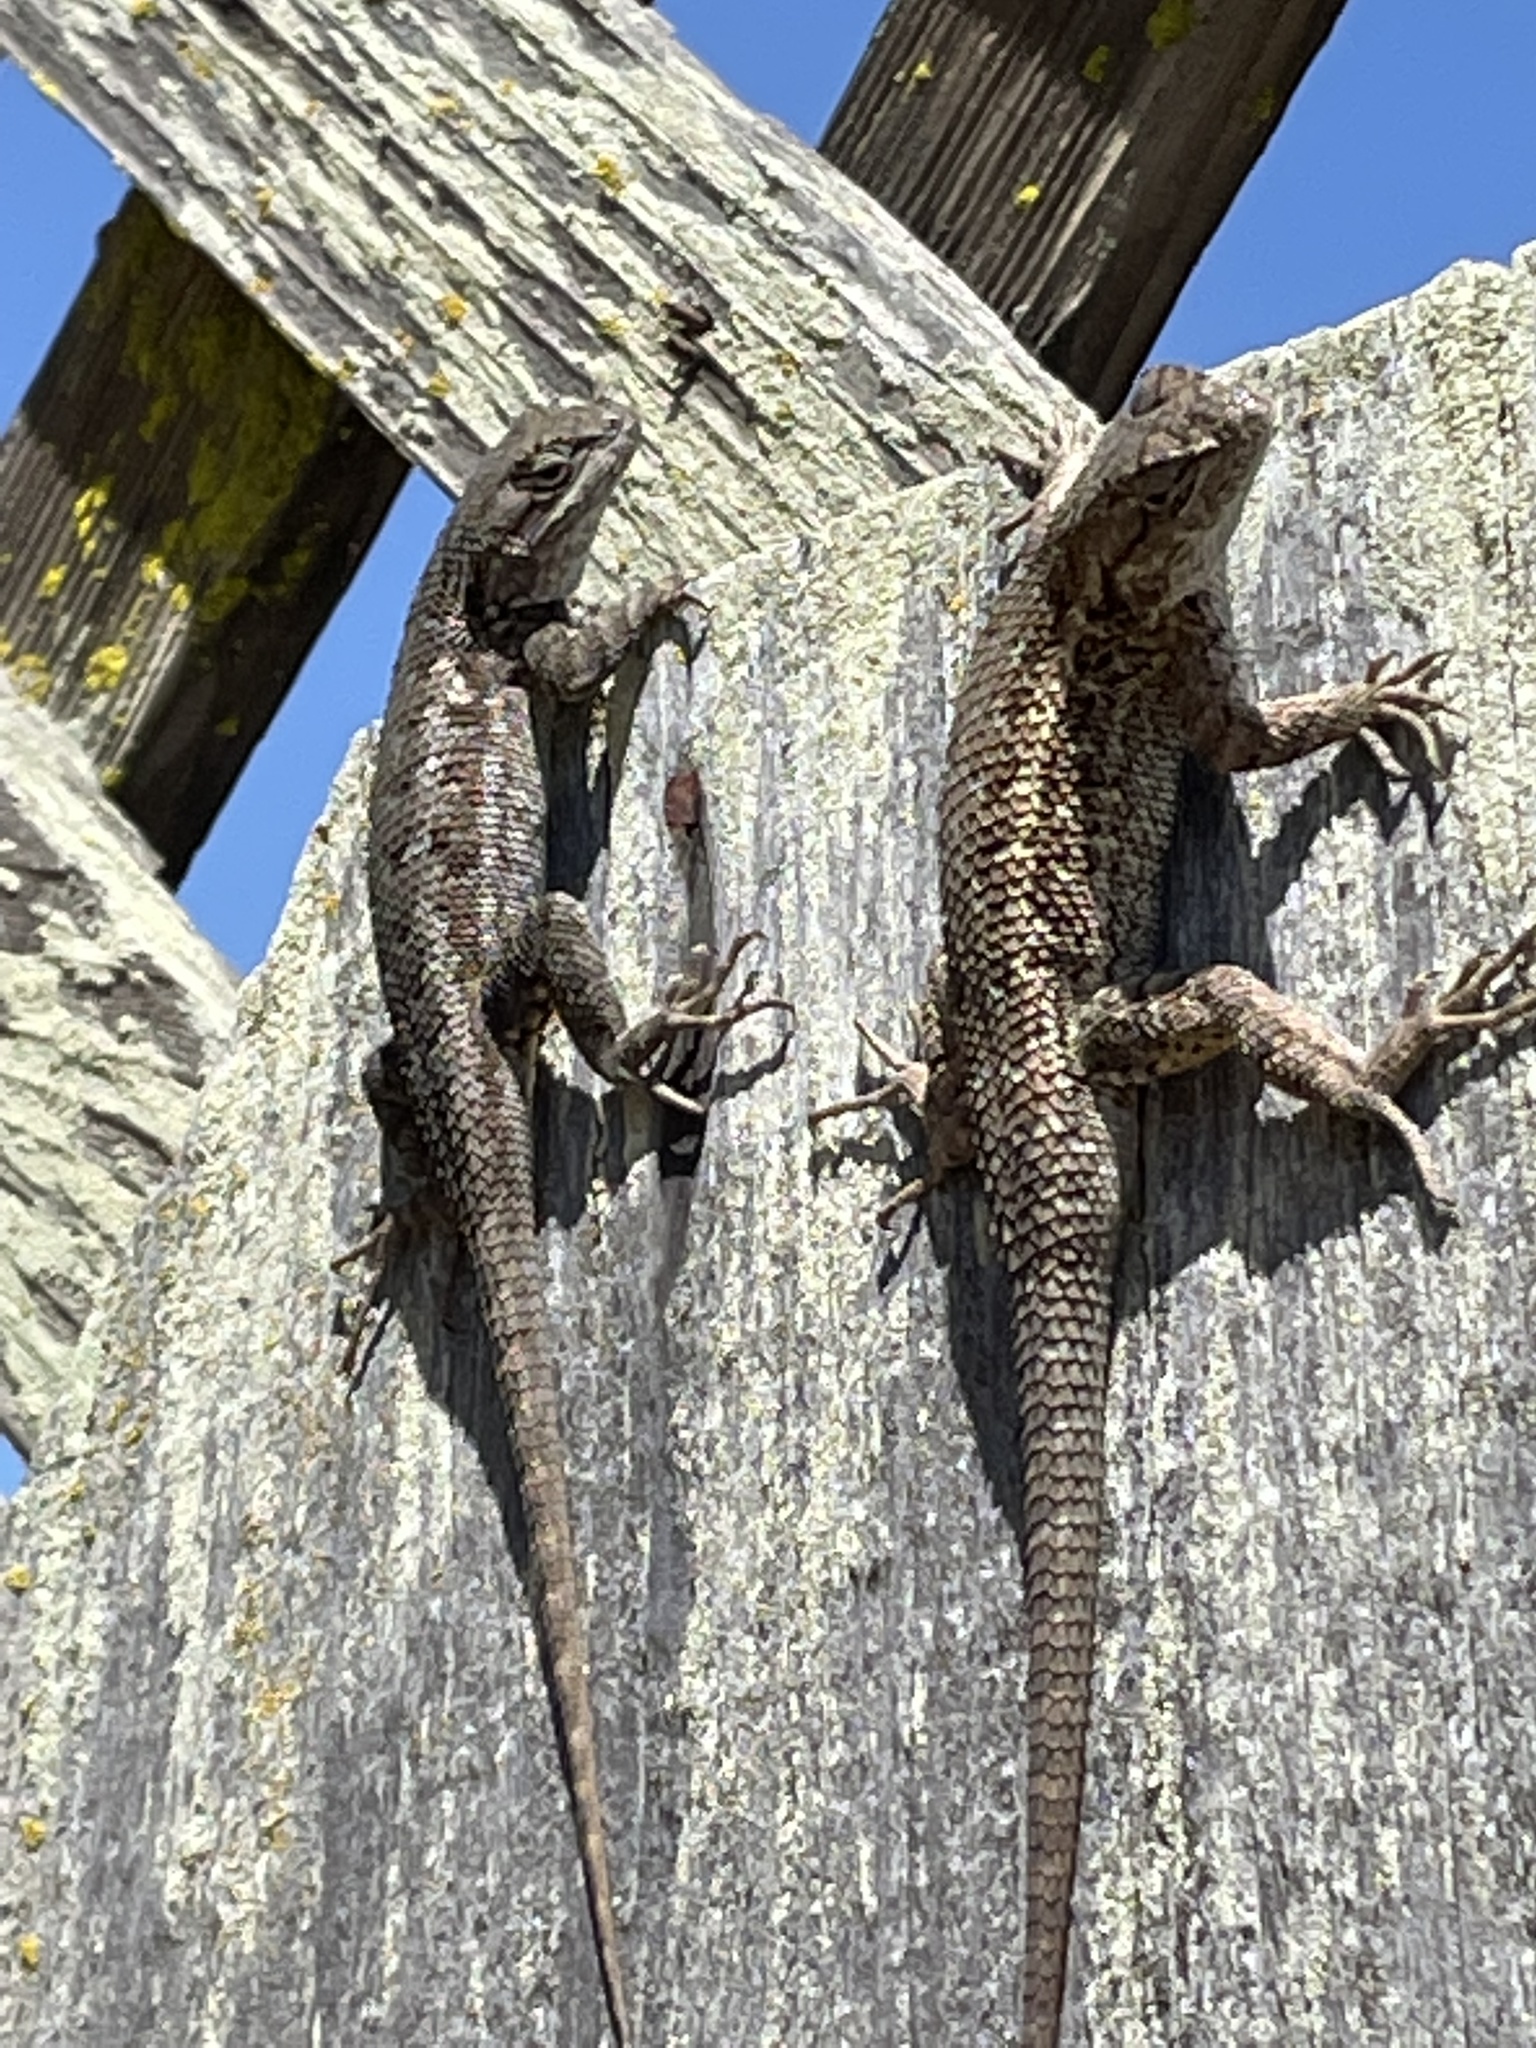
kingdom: Animalia
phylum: Chordata
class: Squamata
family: Phrynosomatidae
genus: Sceloporus
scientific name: Sceloporus occidentalis
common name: Western fence lizard
